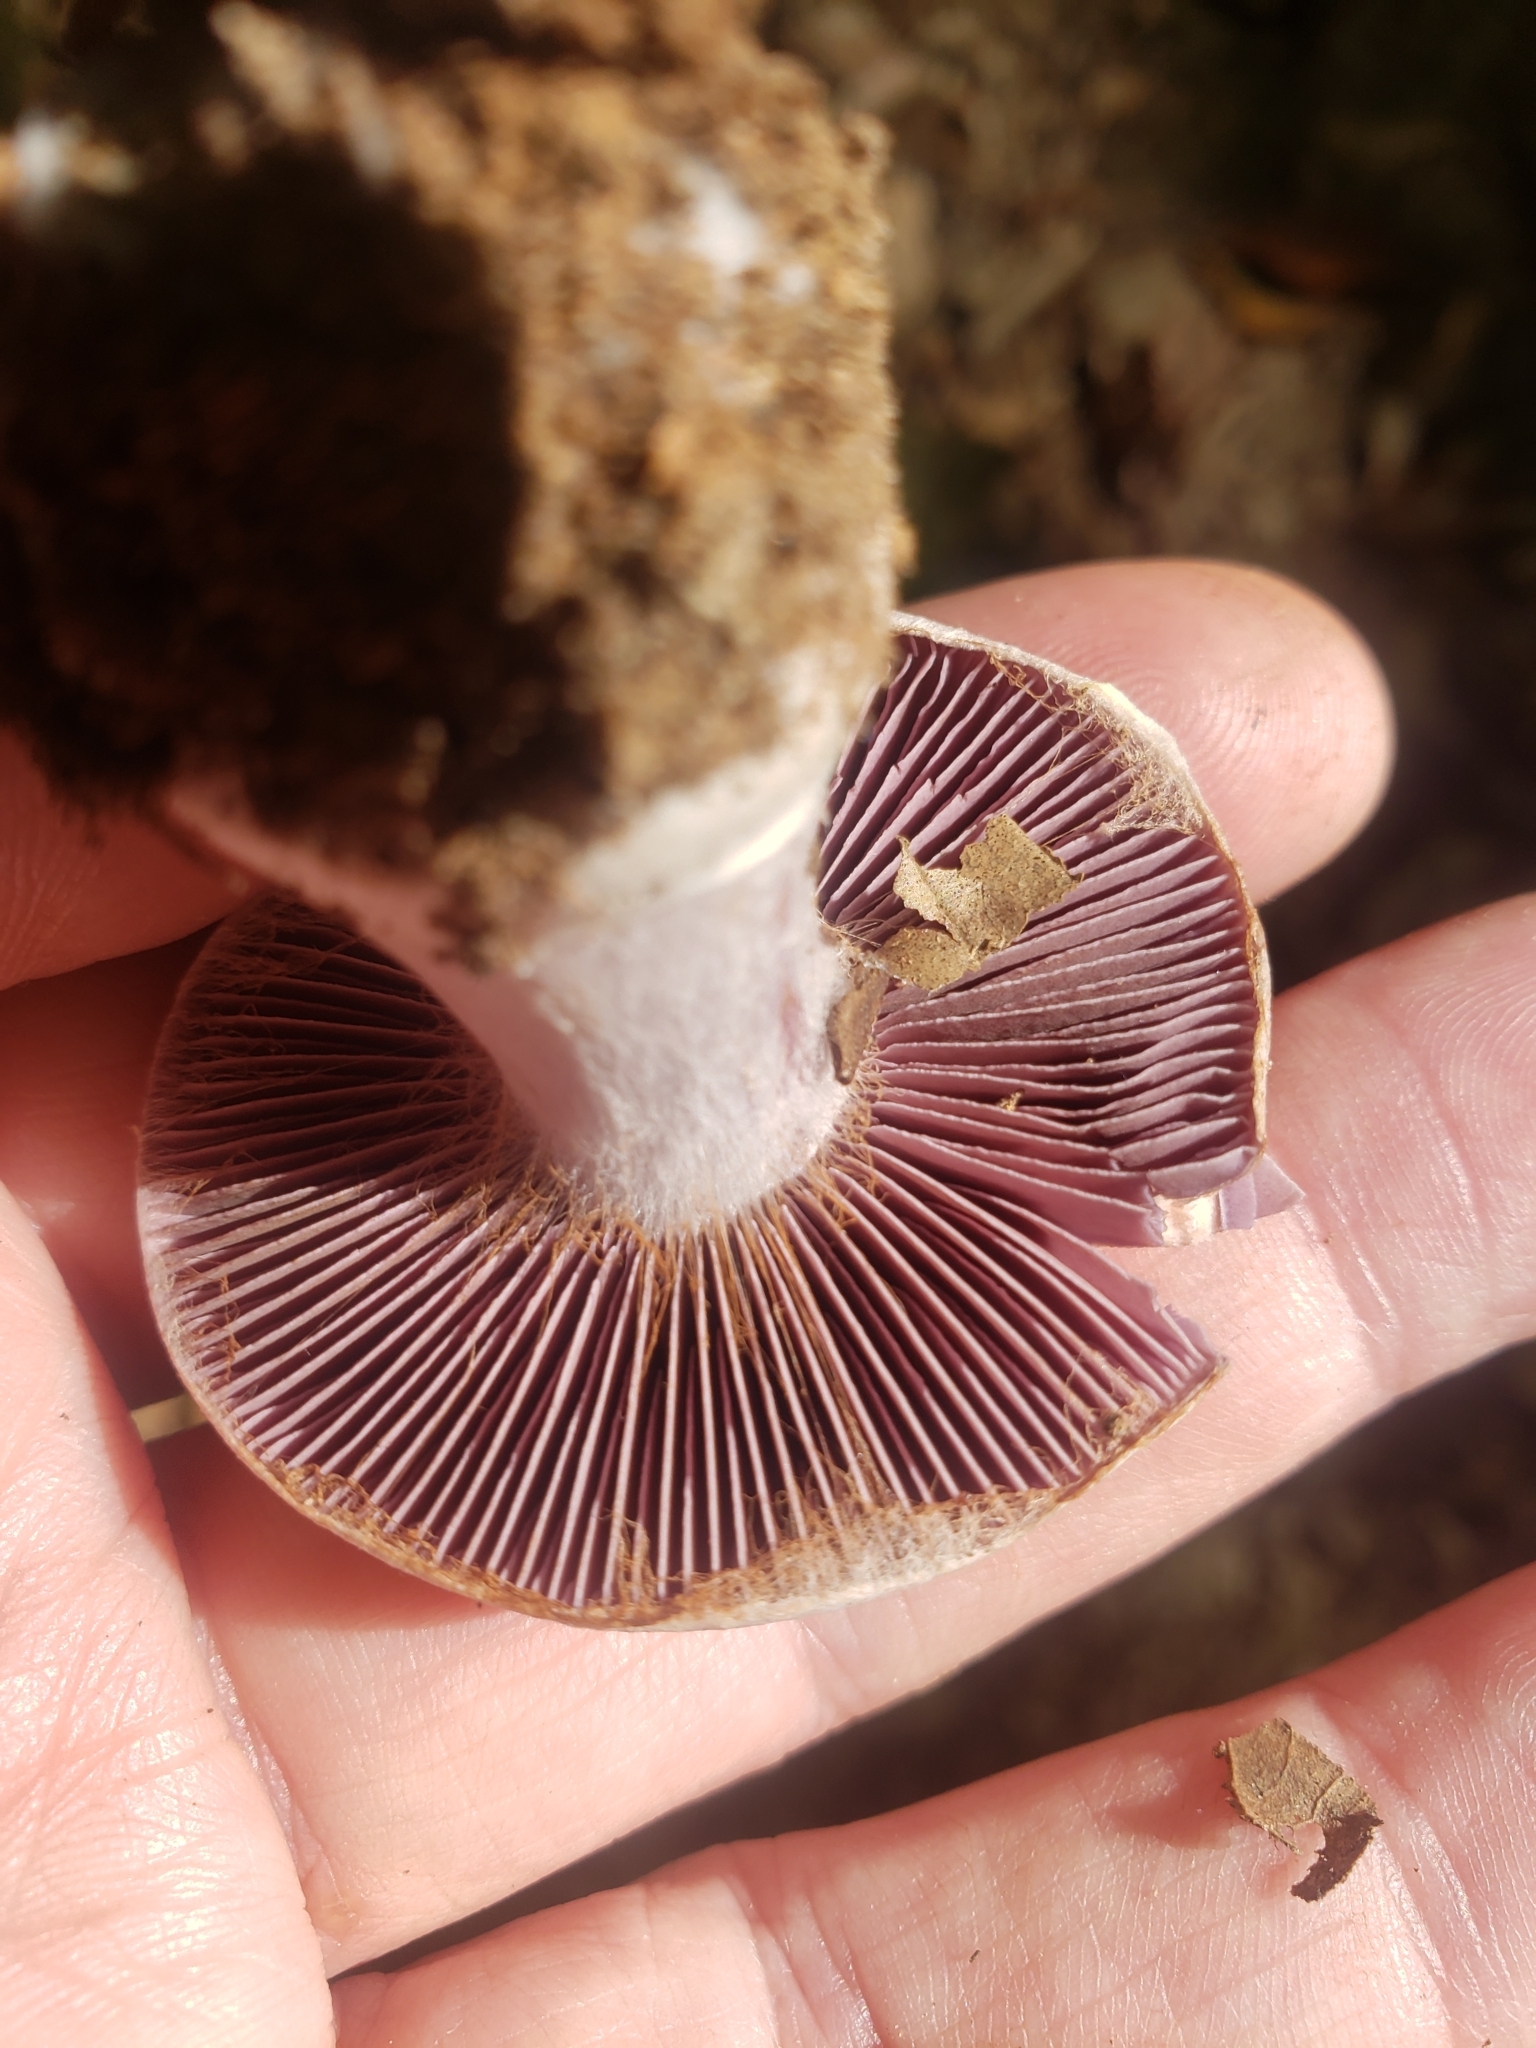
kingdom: Fungi
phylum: Basidiomycota
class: Agaricomycetes
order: Agaricales
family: Cortinariaceae
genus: Cortinarius
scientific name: Cortinarius alboviolaceus
